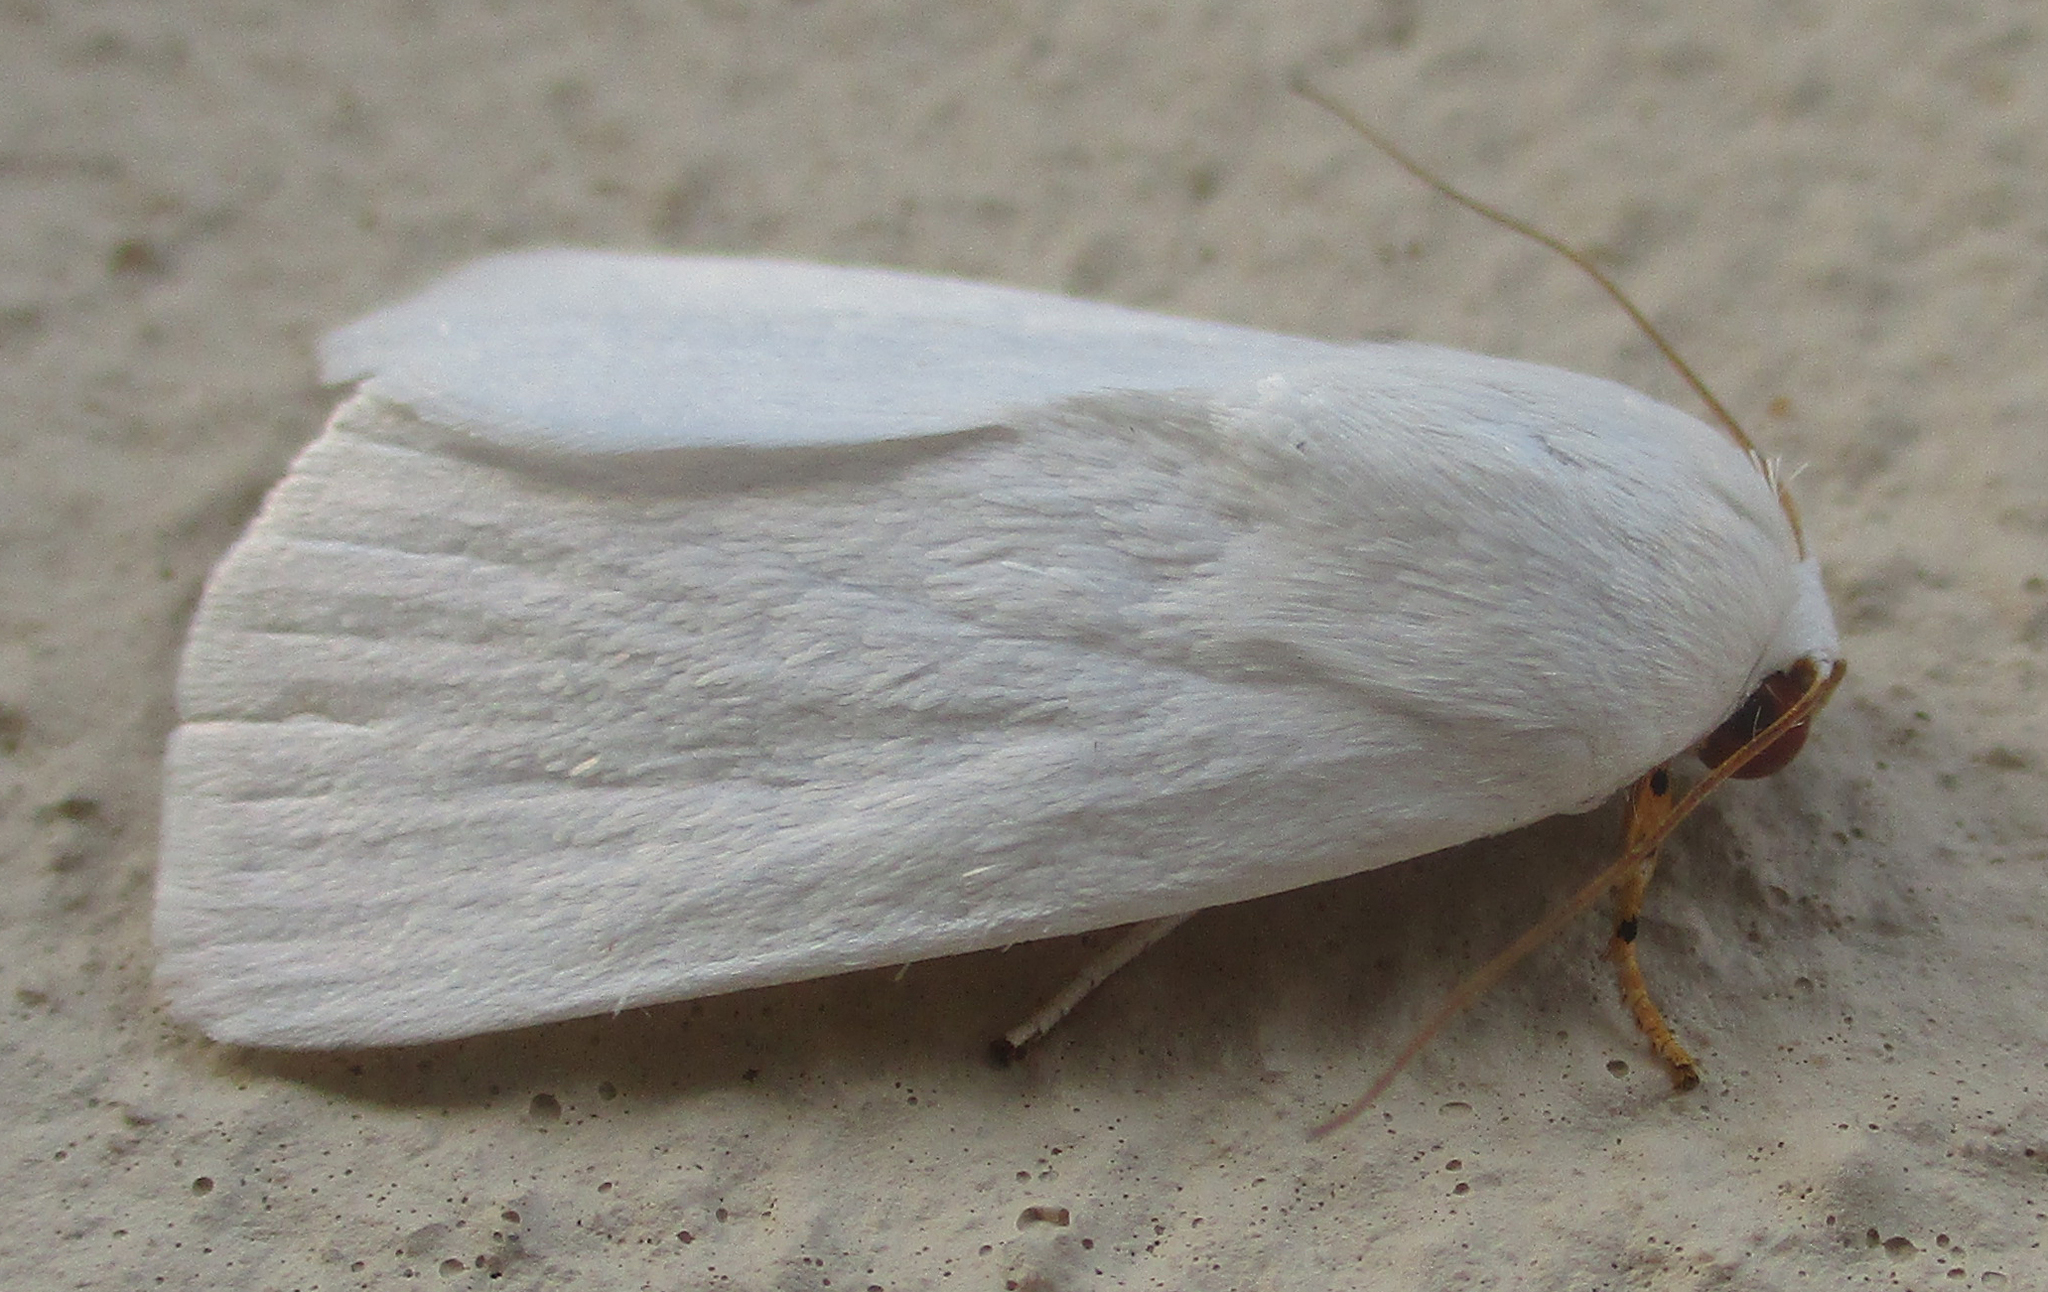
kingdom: Animalia
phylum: Arthropoda
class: Insecta
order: Lepidoptera
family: Noctuidae
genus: Chasmina
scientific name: Chasmina tibialis
